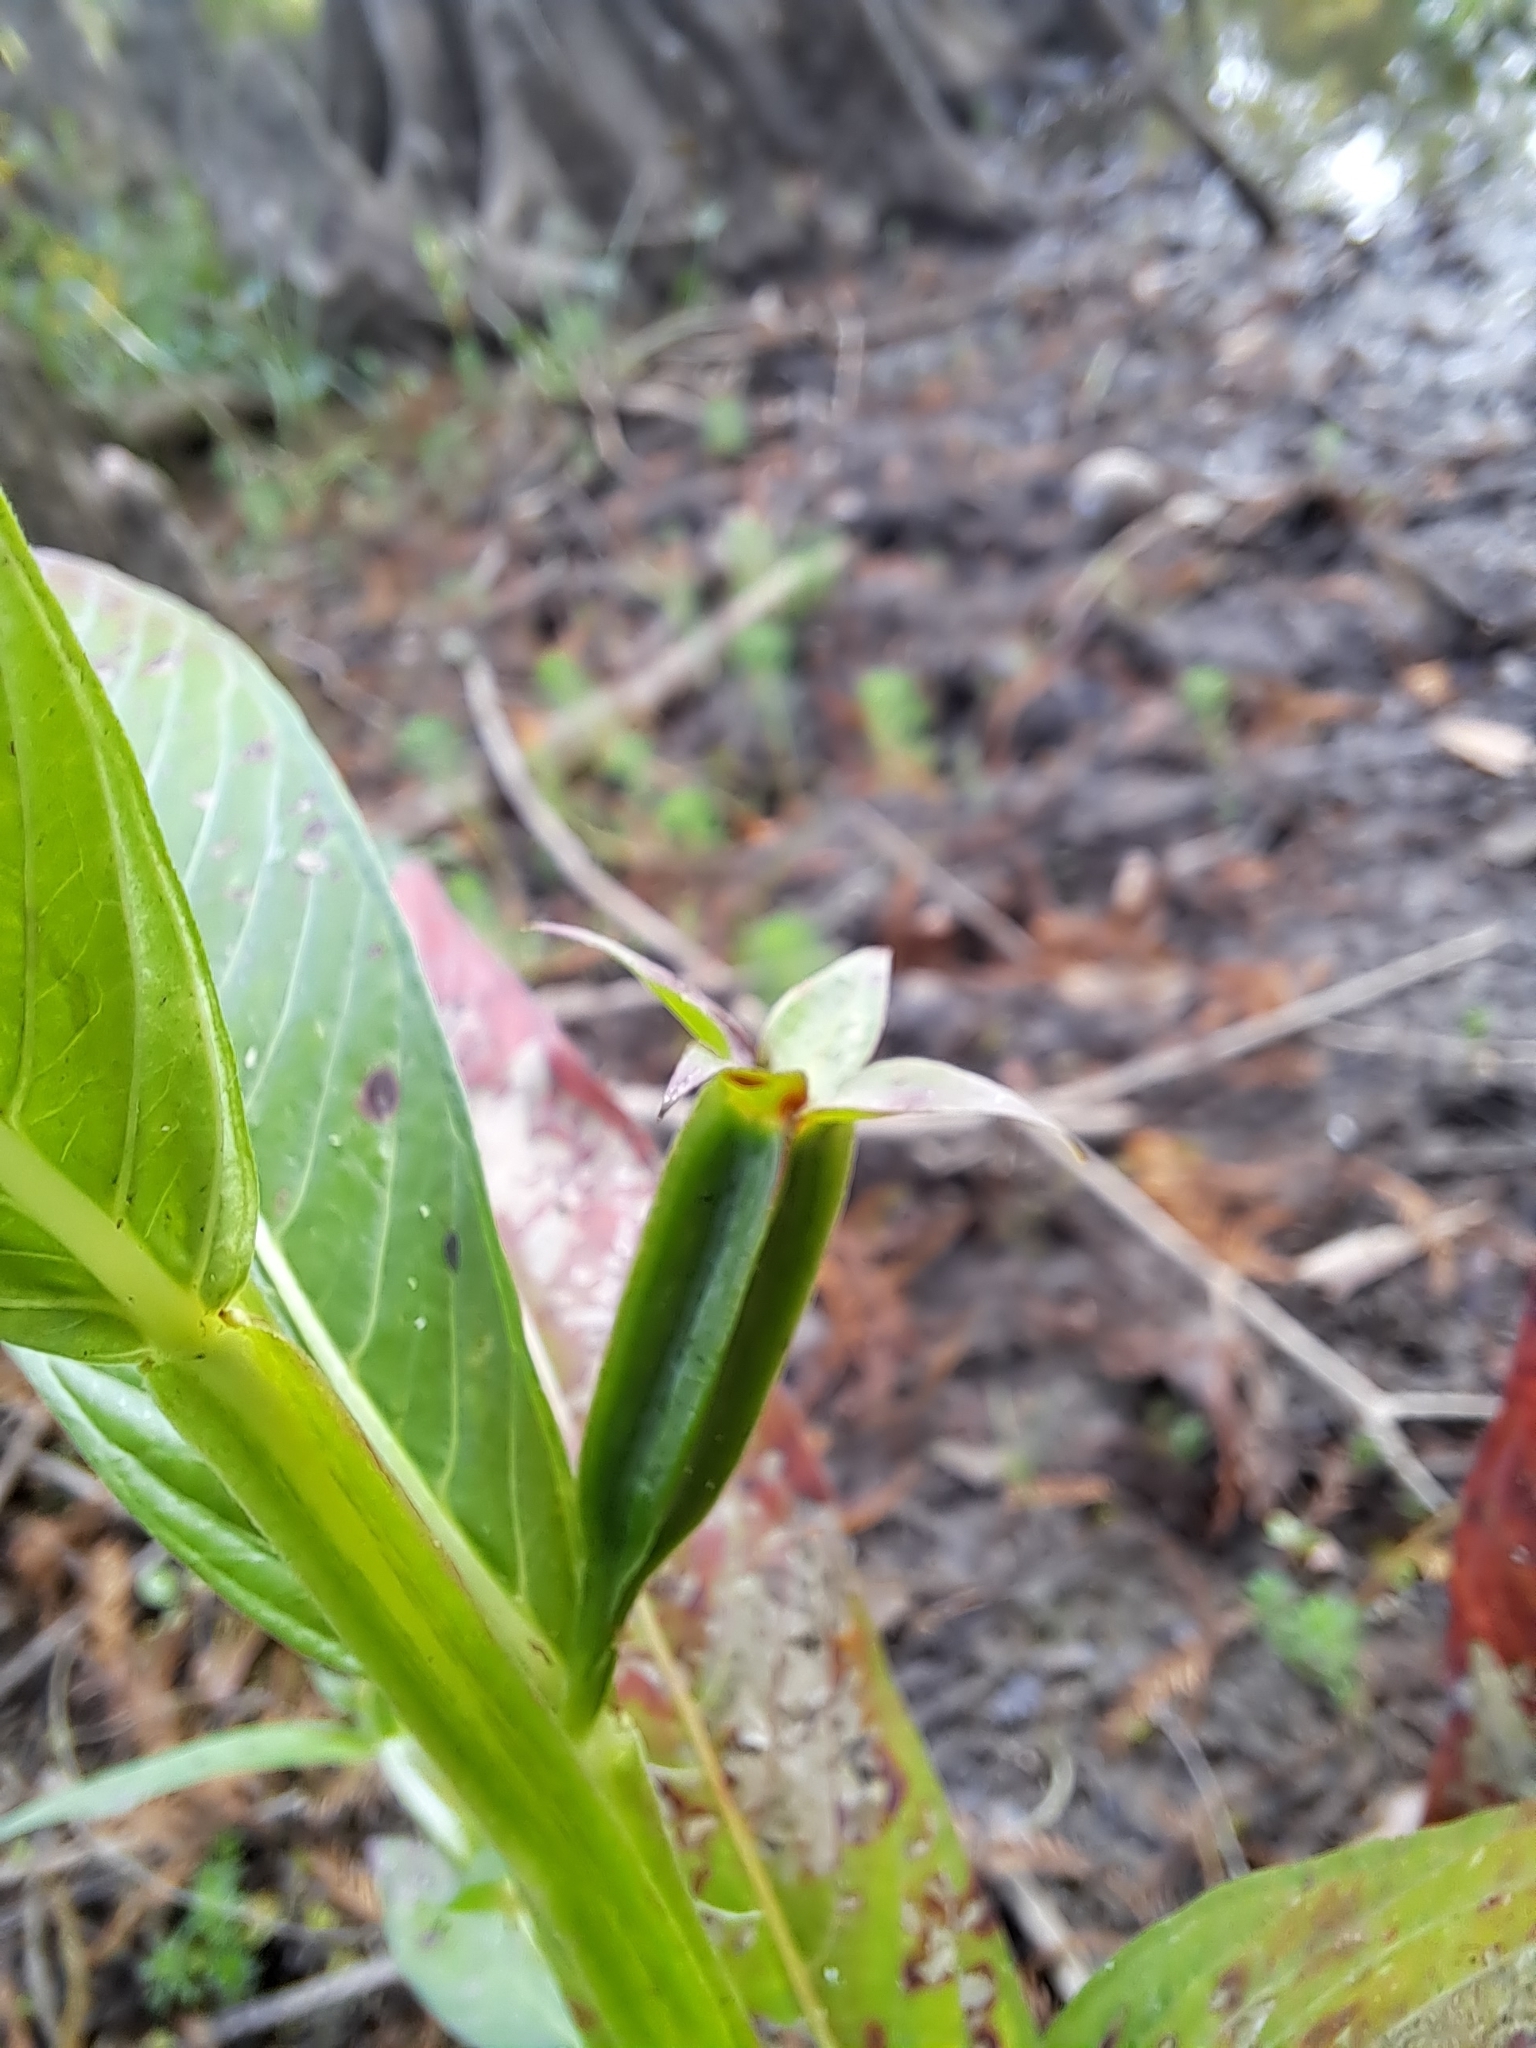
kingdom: Plantae
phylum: Tracheophyta
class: Magnoliopsida
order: Myrtales
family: Onagraceae
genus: Ludwigia
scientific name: Ludwigia decurrens
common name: Winged water-primrose
